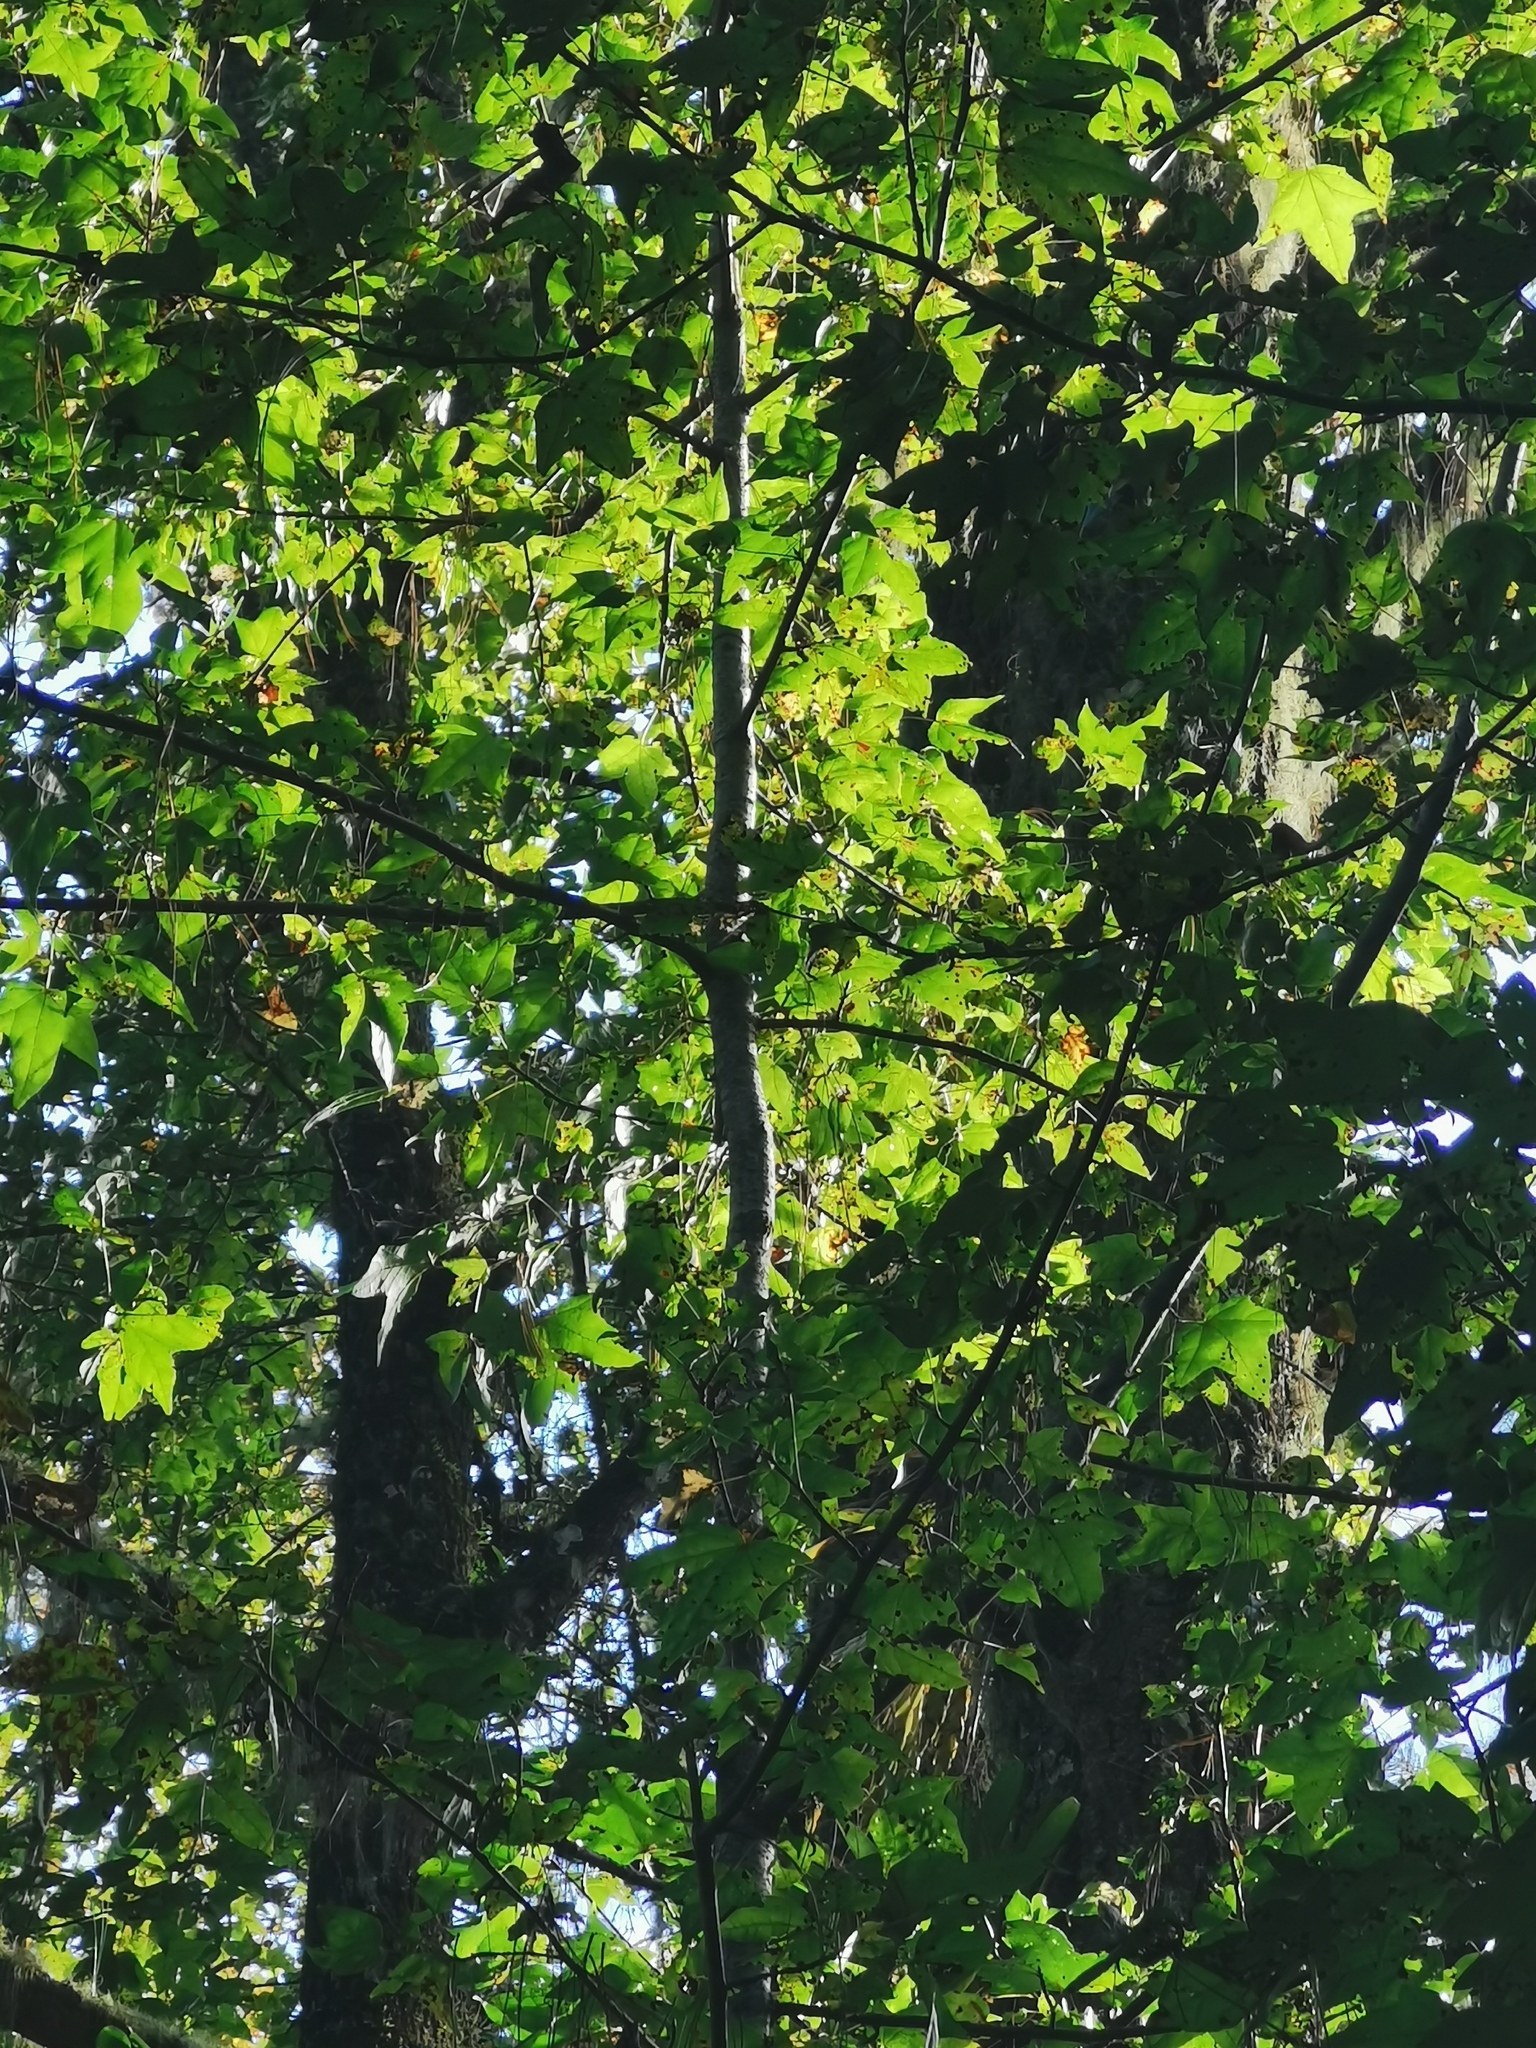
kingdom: Plantae
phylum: Tracheophyta
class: Magnoliopsida
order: Saxifragales
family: Altingiaceae
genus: Liquidambar
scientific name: Liquidambar styraciflua
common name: Sweet gum
